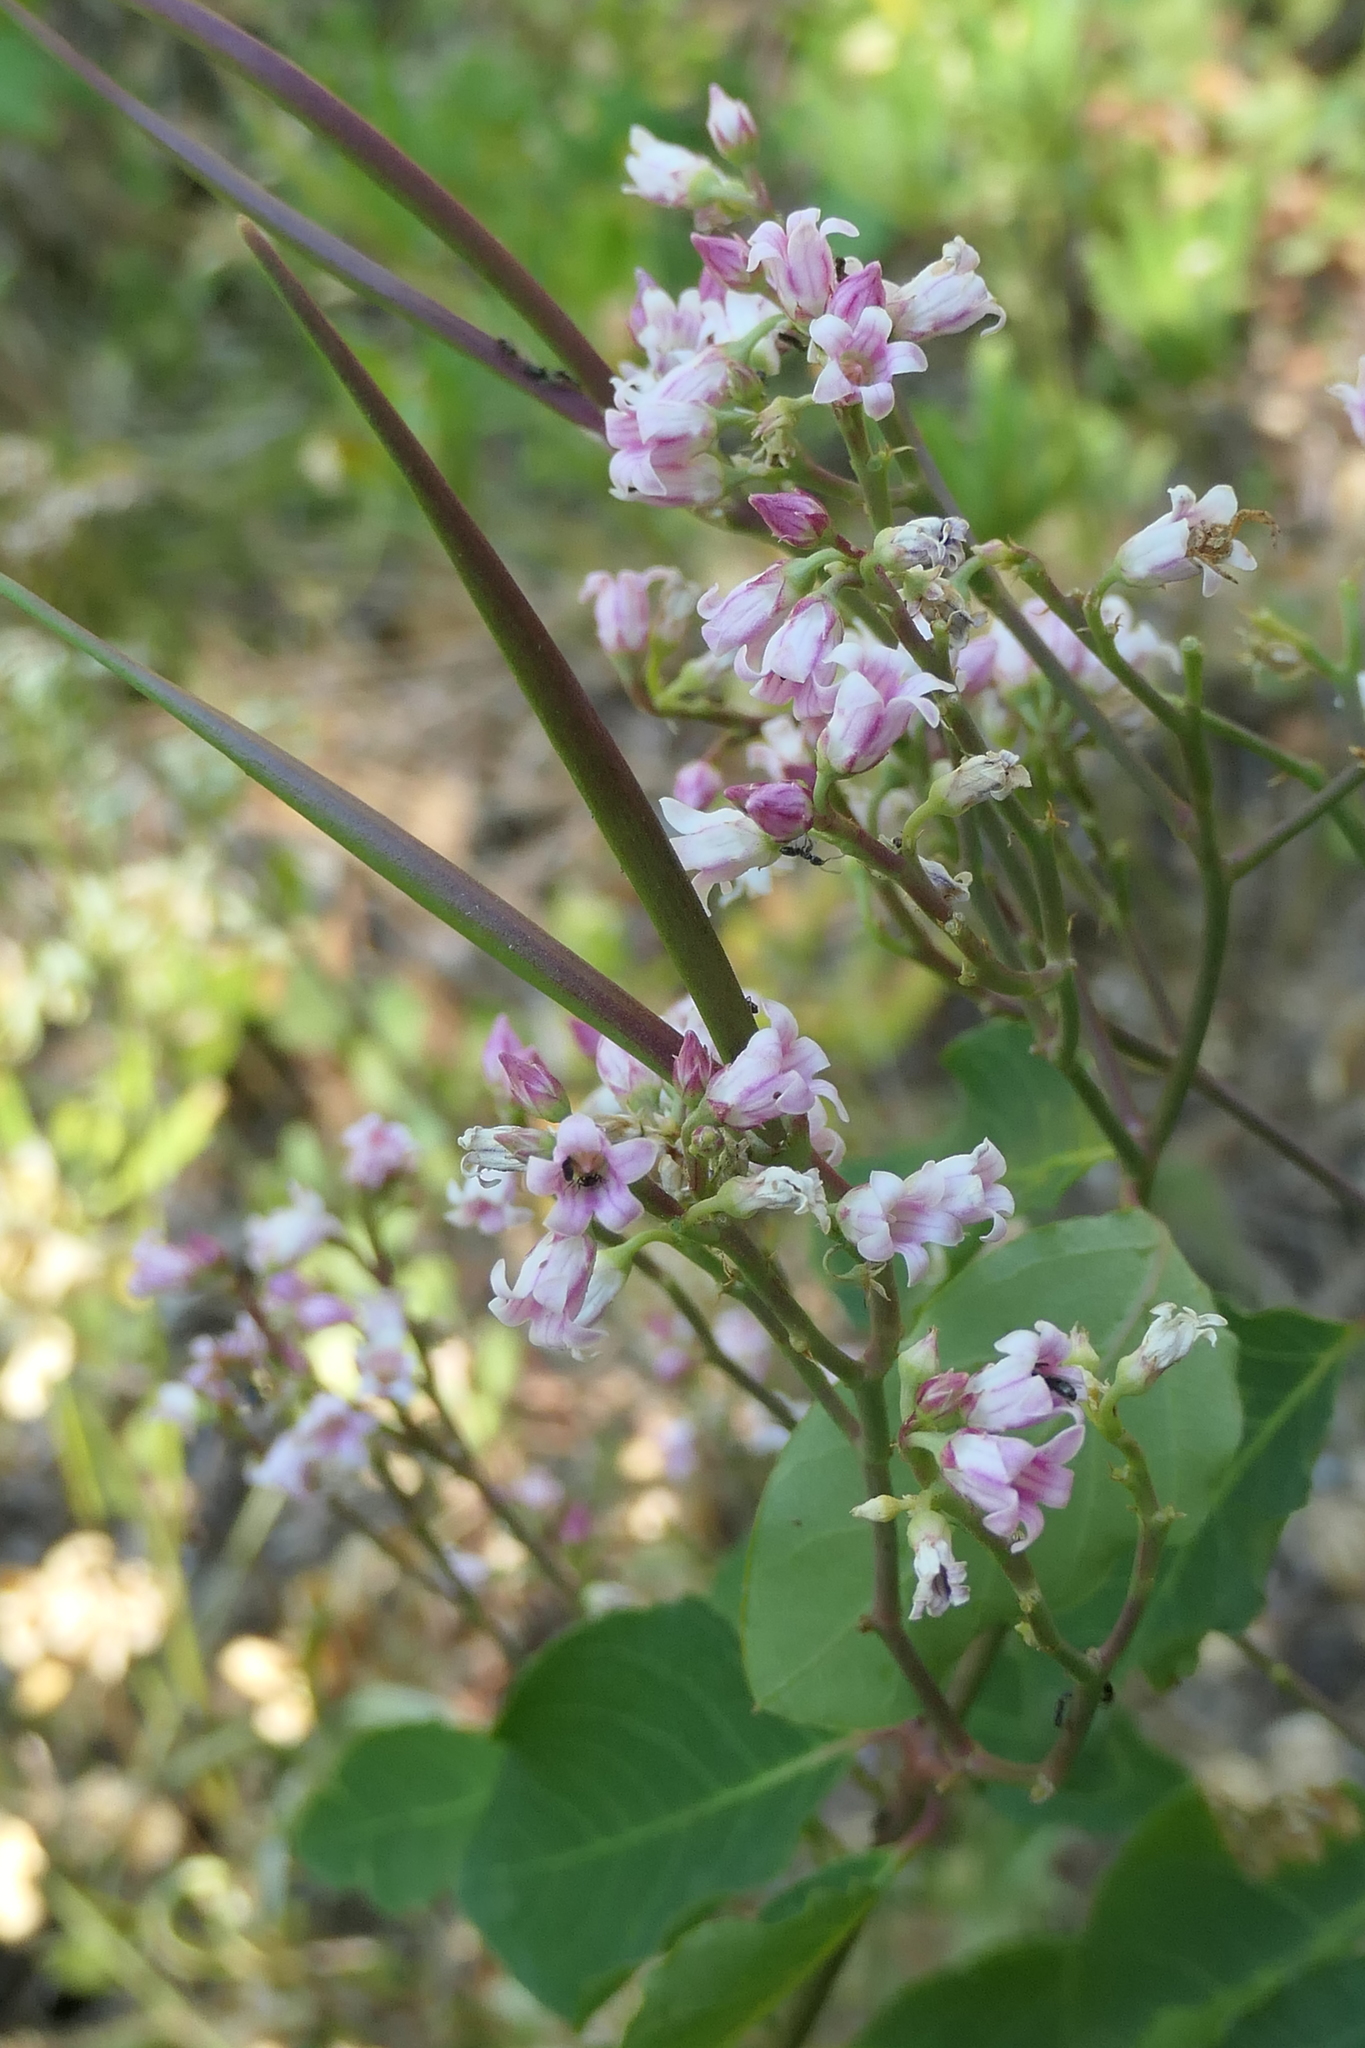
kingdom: Plantae
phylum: Tracheophyta
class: Magnoliopsida
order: Gentianales
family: Apocynaceae
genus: Apocynum
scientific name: Apocynum androsaemifolium
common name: Spreading dogbane
